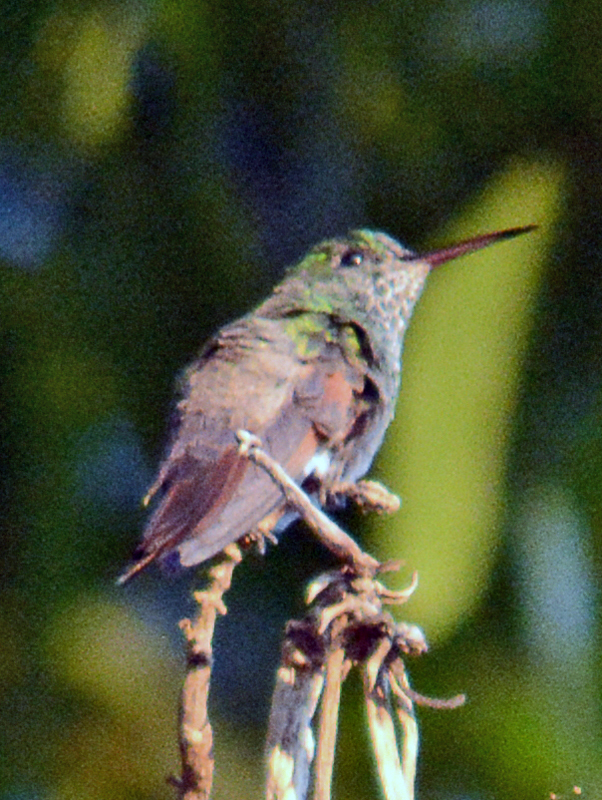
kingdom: Animalia
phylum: Chordata
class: Aves
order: Apodiformes
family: Trochilidae
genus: Saucerottia
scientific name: Saucerottia beryllina
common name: Berylline hummingbird
